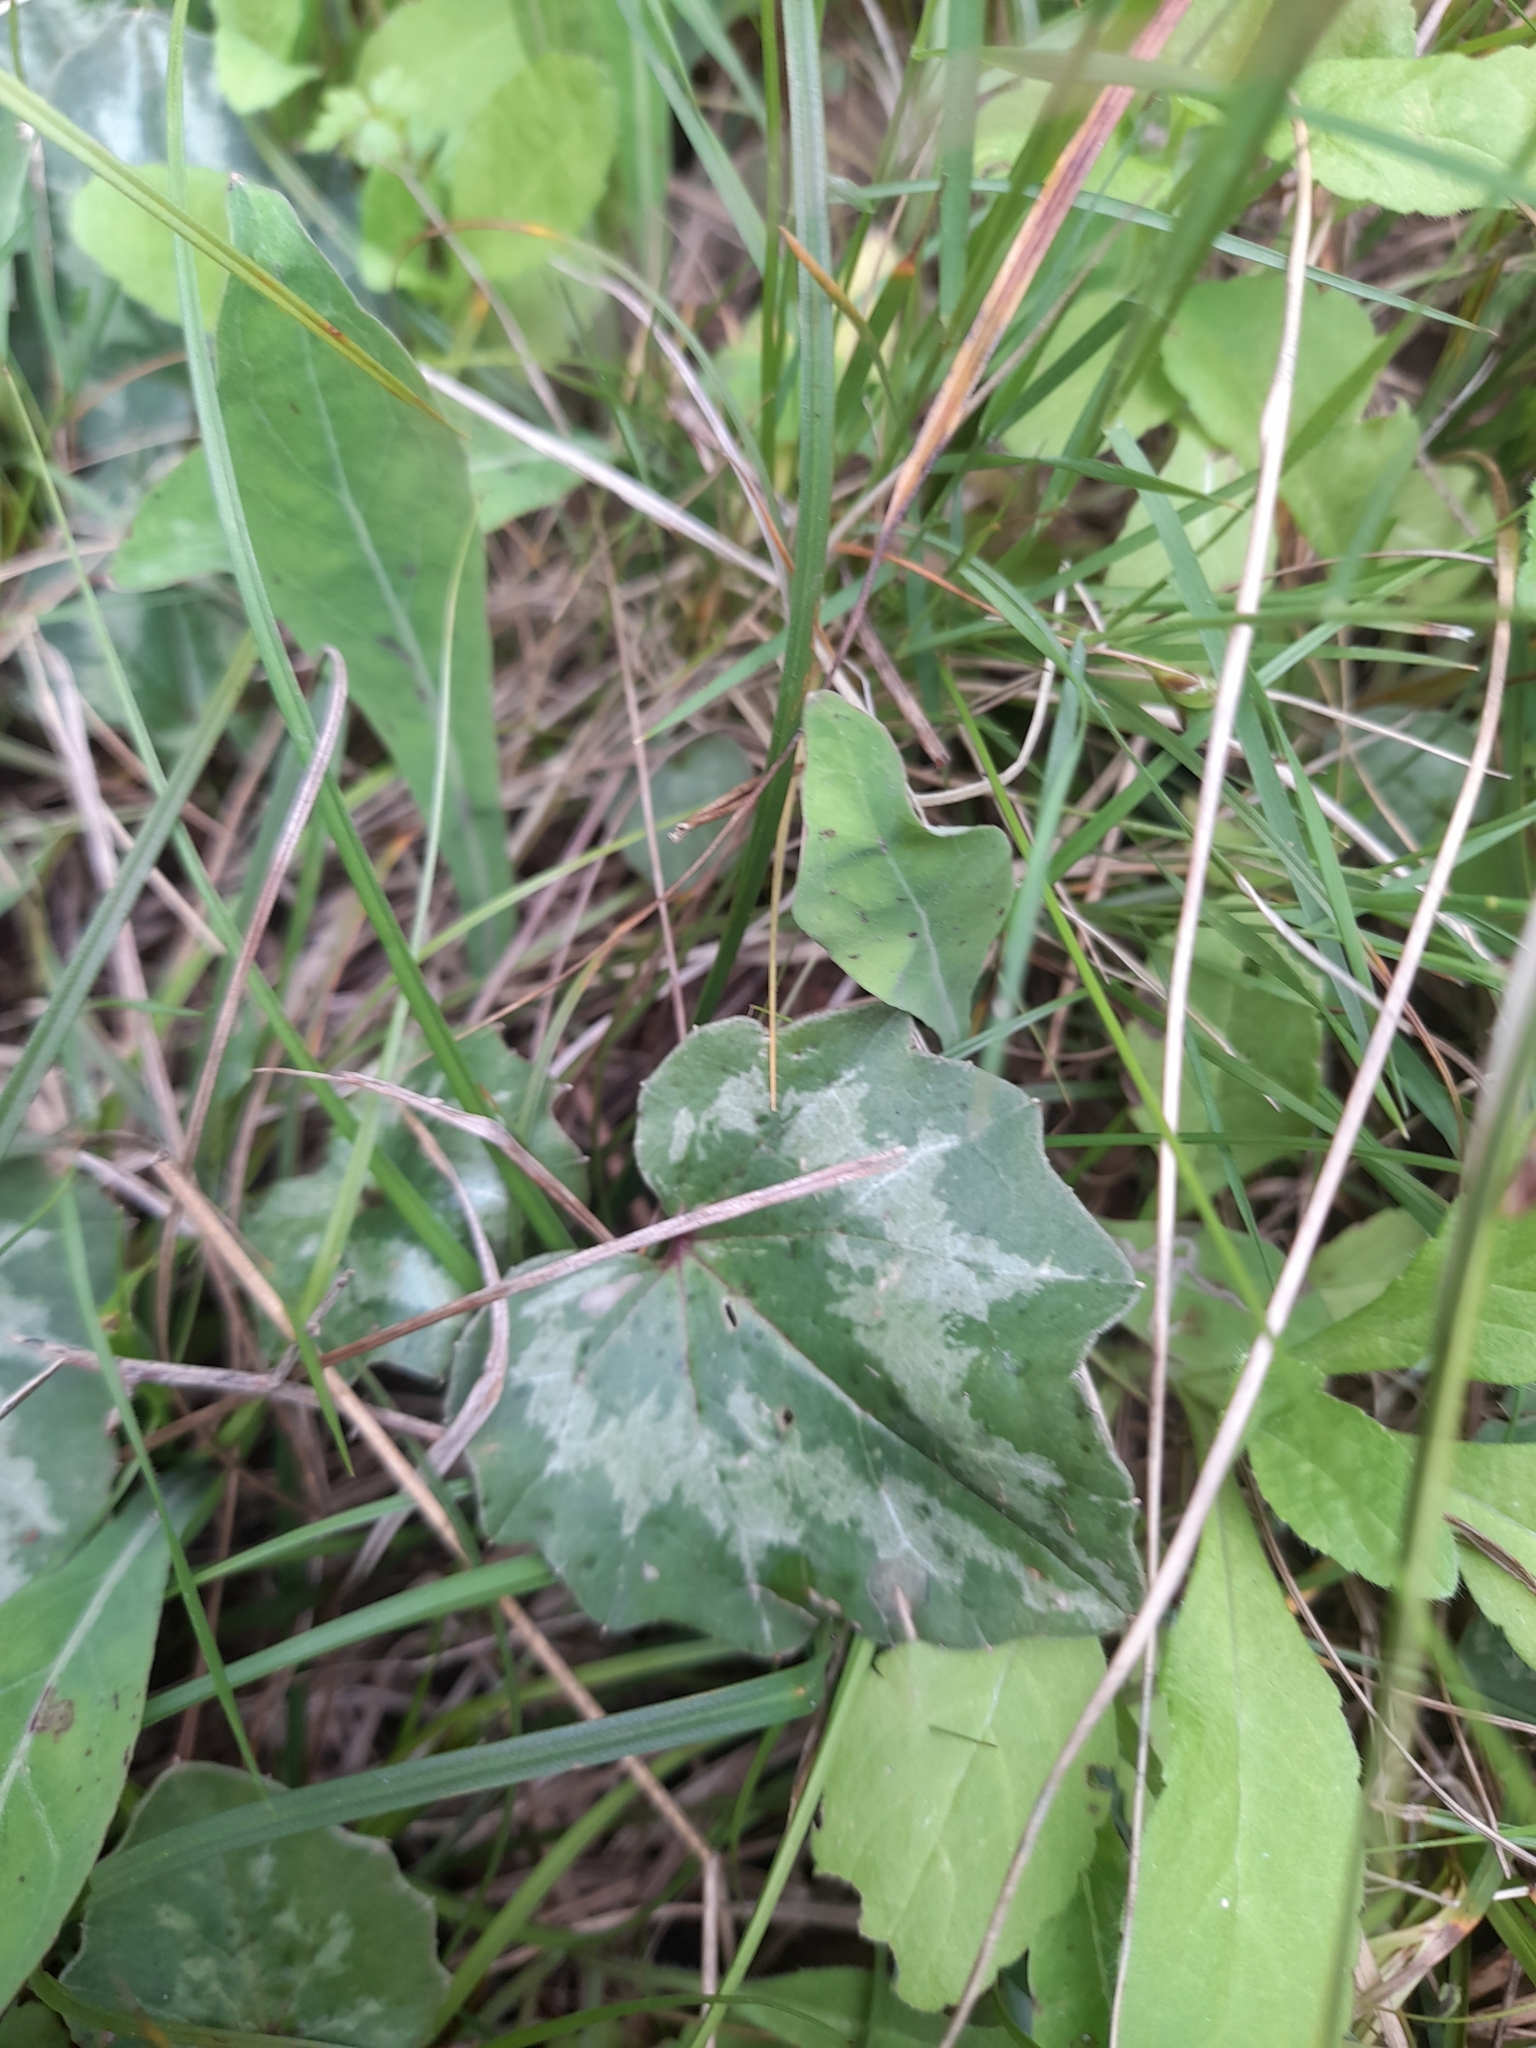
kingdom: Plantae
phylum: Tracheophyta
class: Magnoliopsida
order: Ericales
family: Primulaceae
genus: Cyclamen
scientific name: Cyclamen repandum
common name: Spring sowbread
